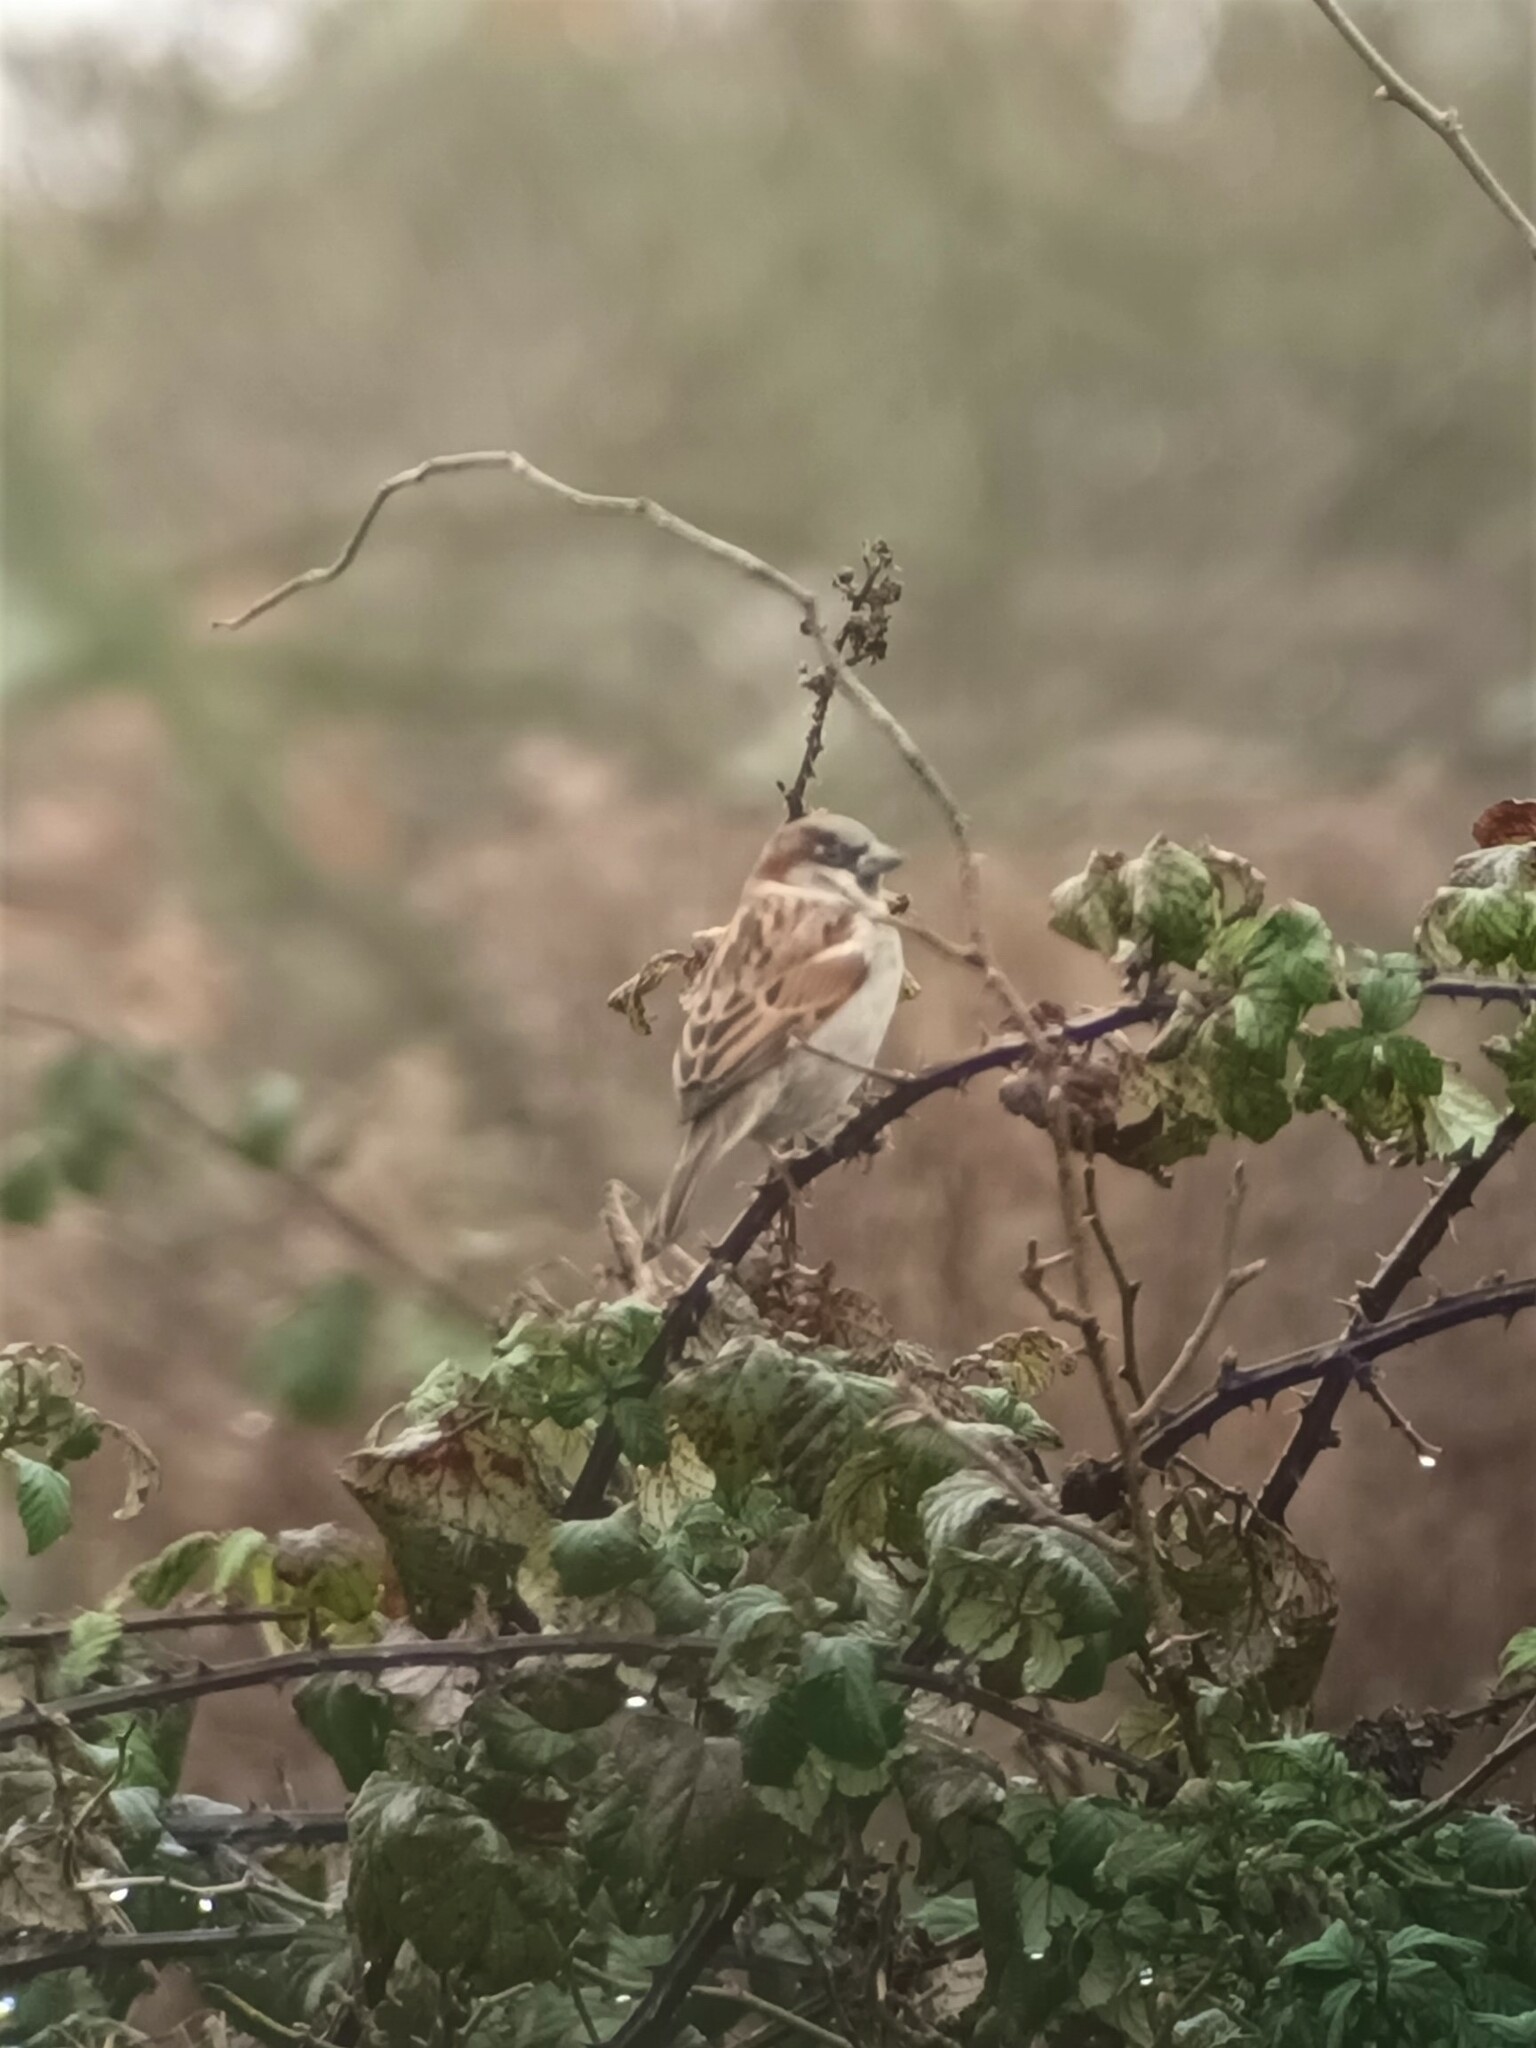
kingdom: Animalia
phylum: Chordata
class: Aves
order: Passeriformes
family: Passeridae
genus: Passer
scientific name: Passer domesticus
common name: House sparrow
